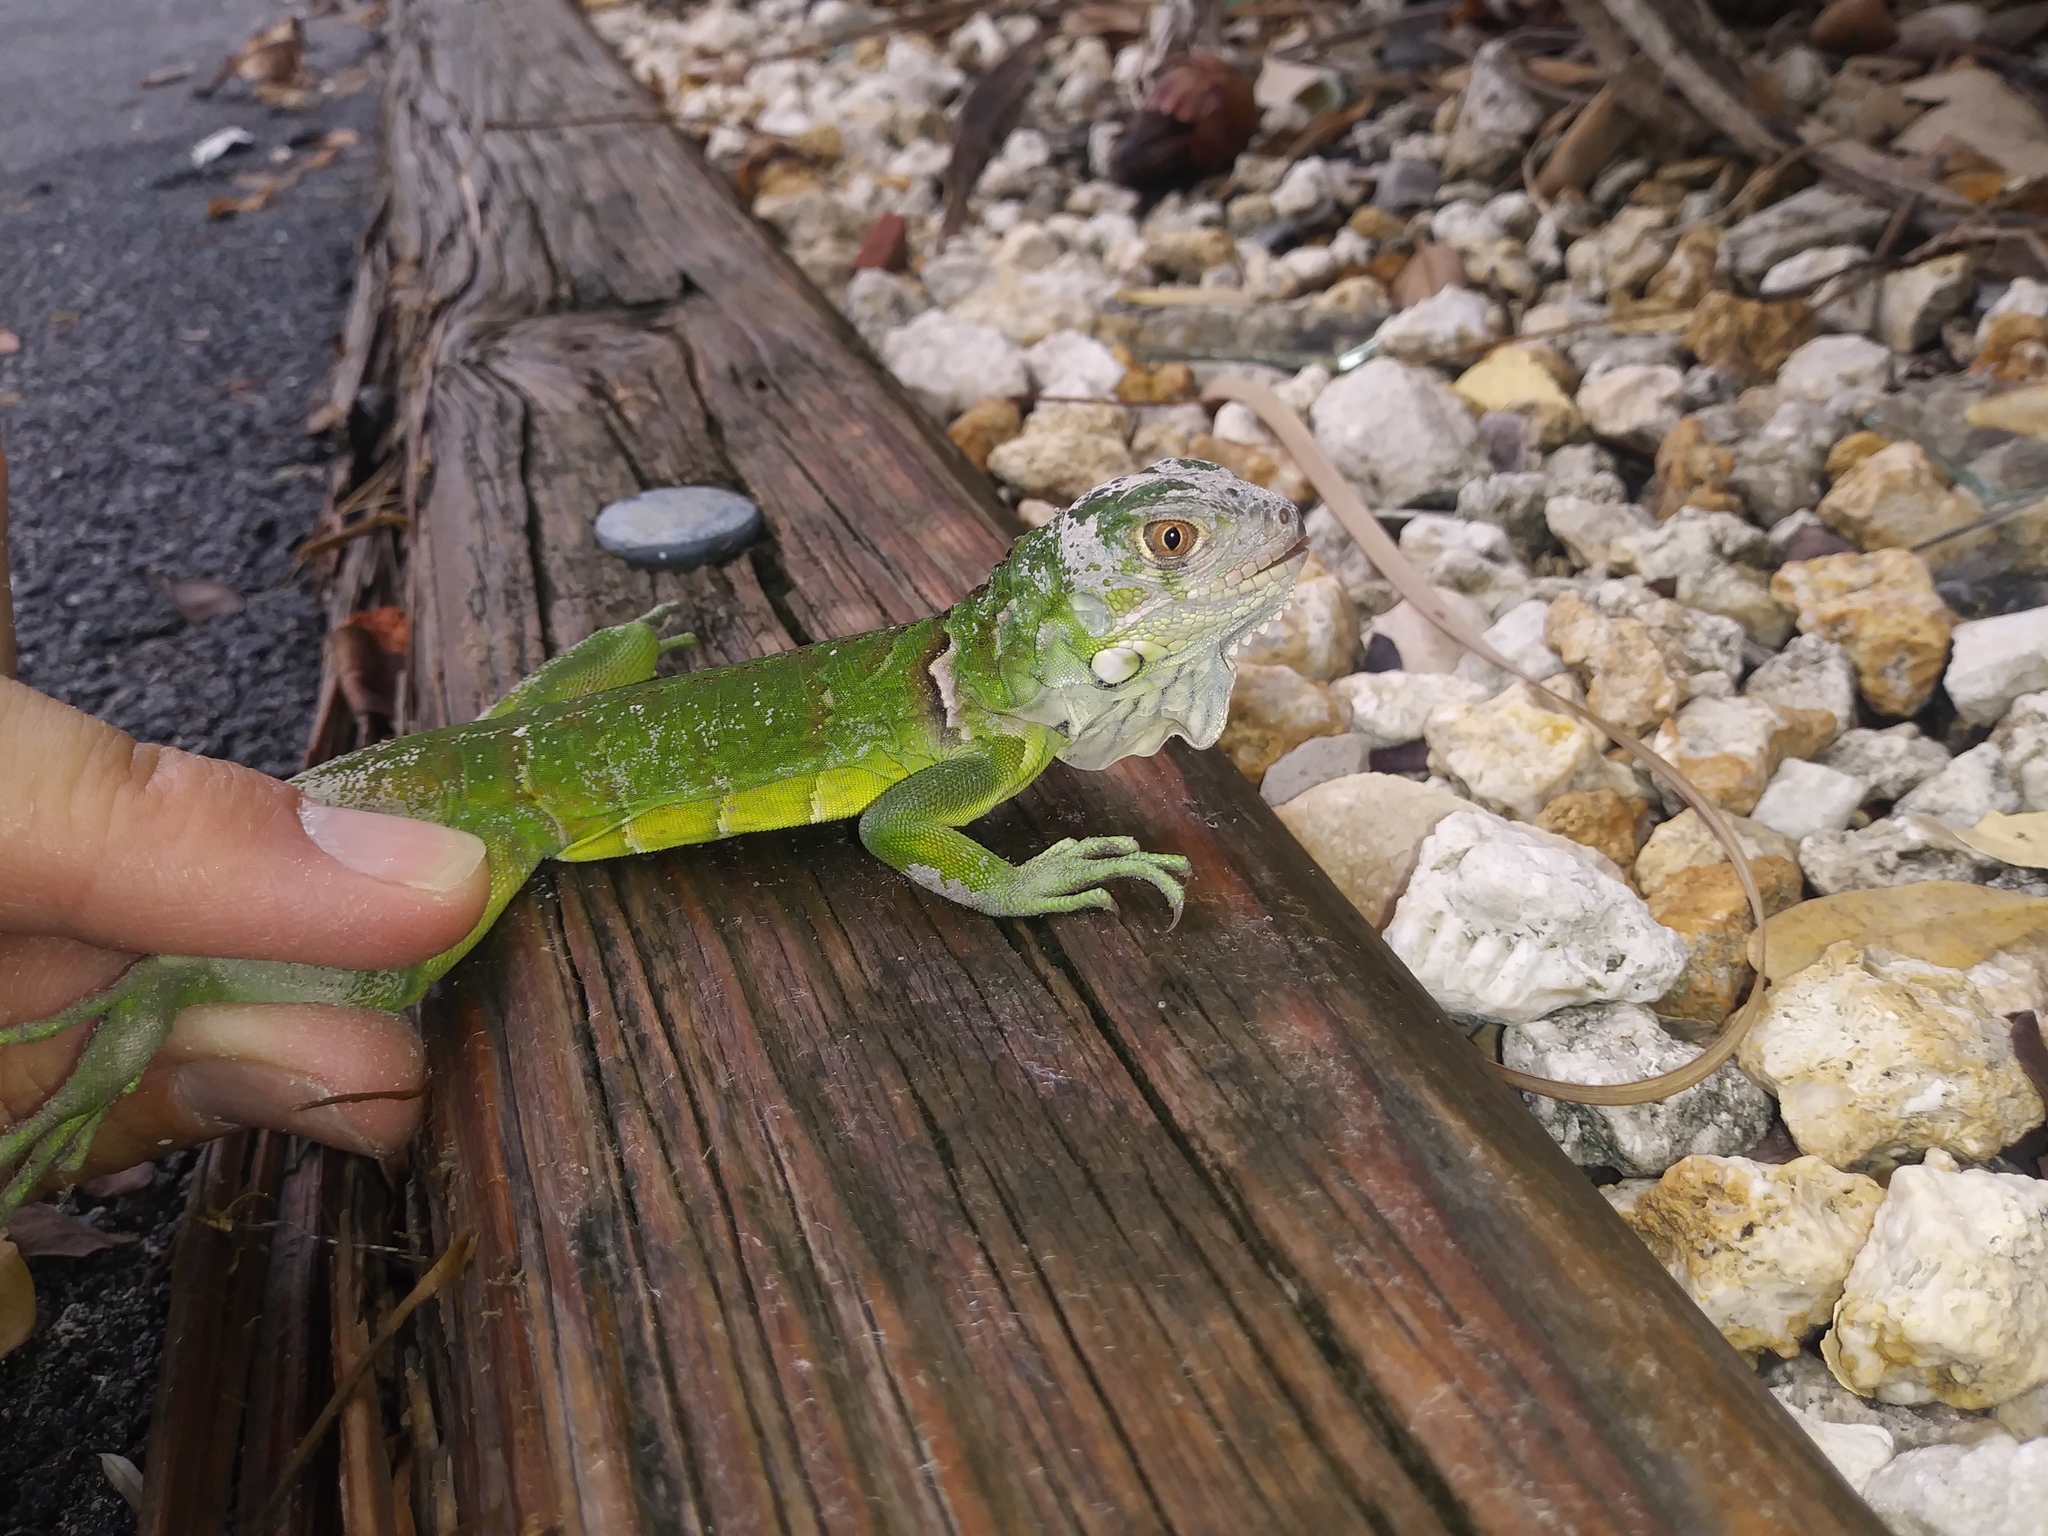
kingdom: Animalia
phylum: Chordata
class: Squamata
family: Iguanidae
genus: Iguana
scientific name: Iguana iguana
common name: Green iguana
